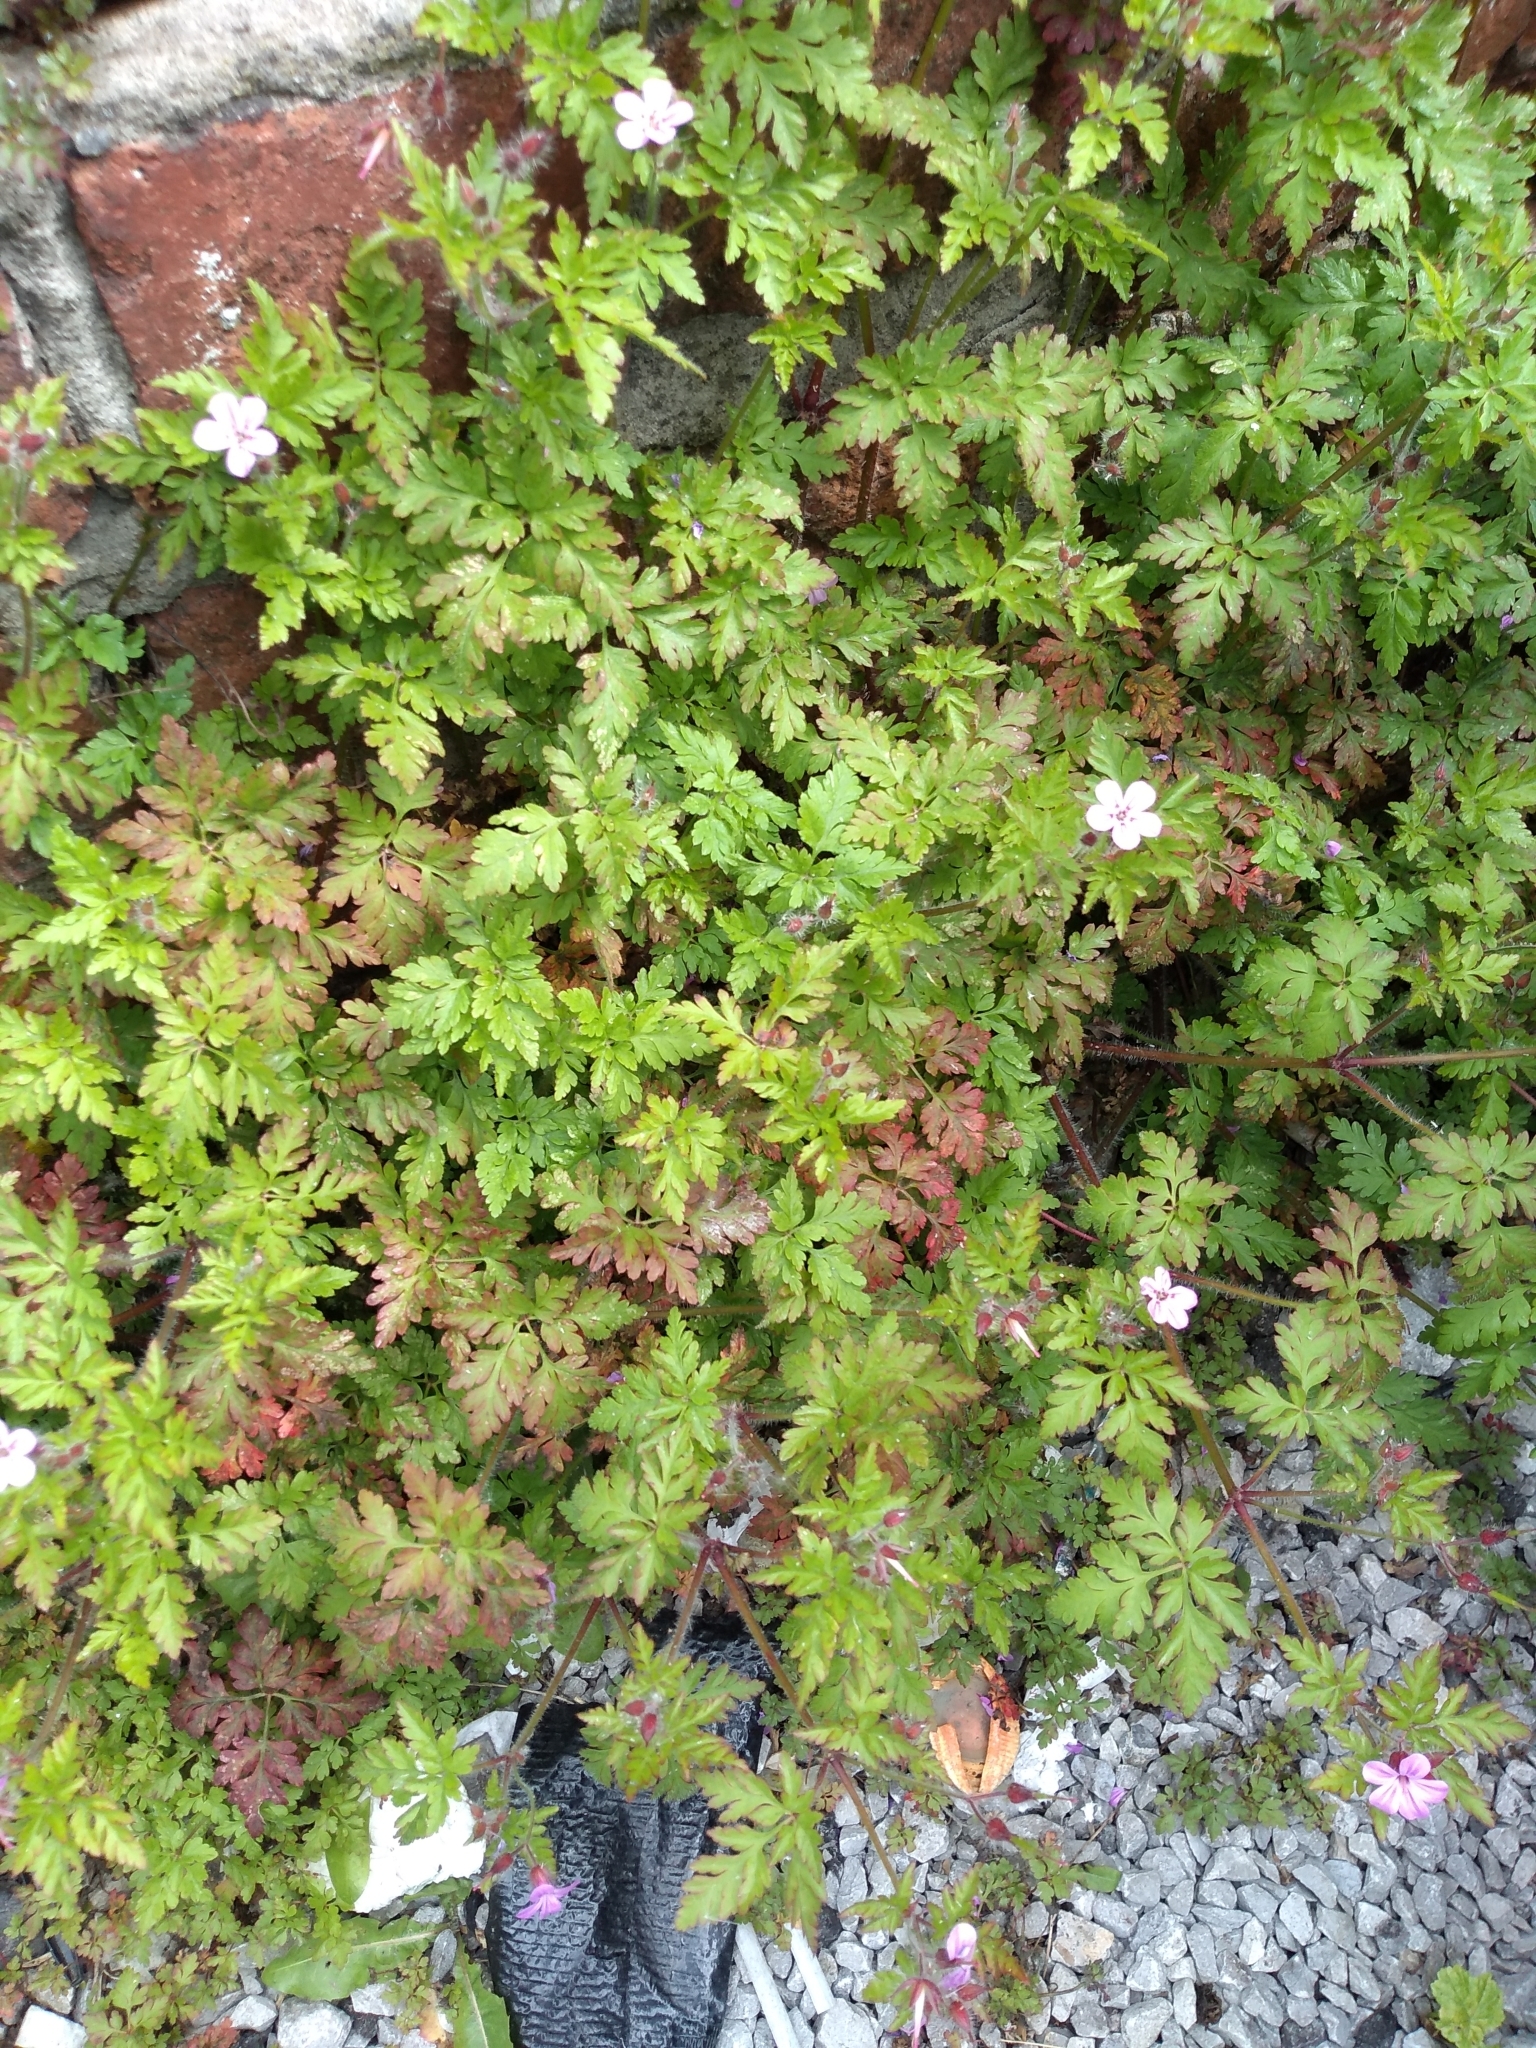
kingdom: Plantae
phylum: Tracheophyta
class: Magnoliopsida
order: Geraniales
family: Geraniaceae
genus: Geranium
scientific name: Geranium robertianum
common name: Herb-robert
